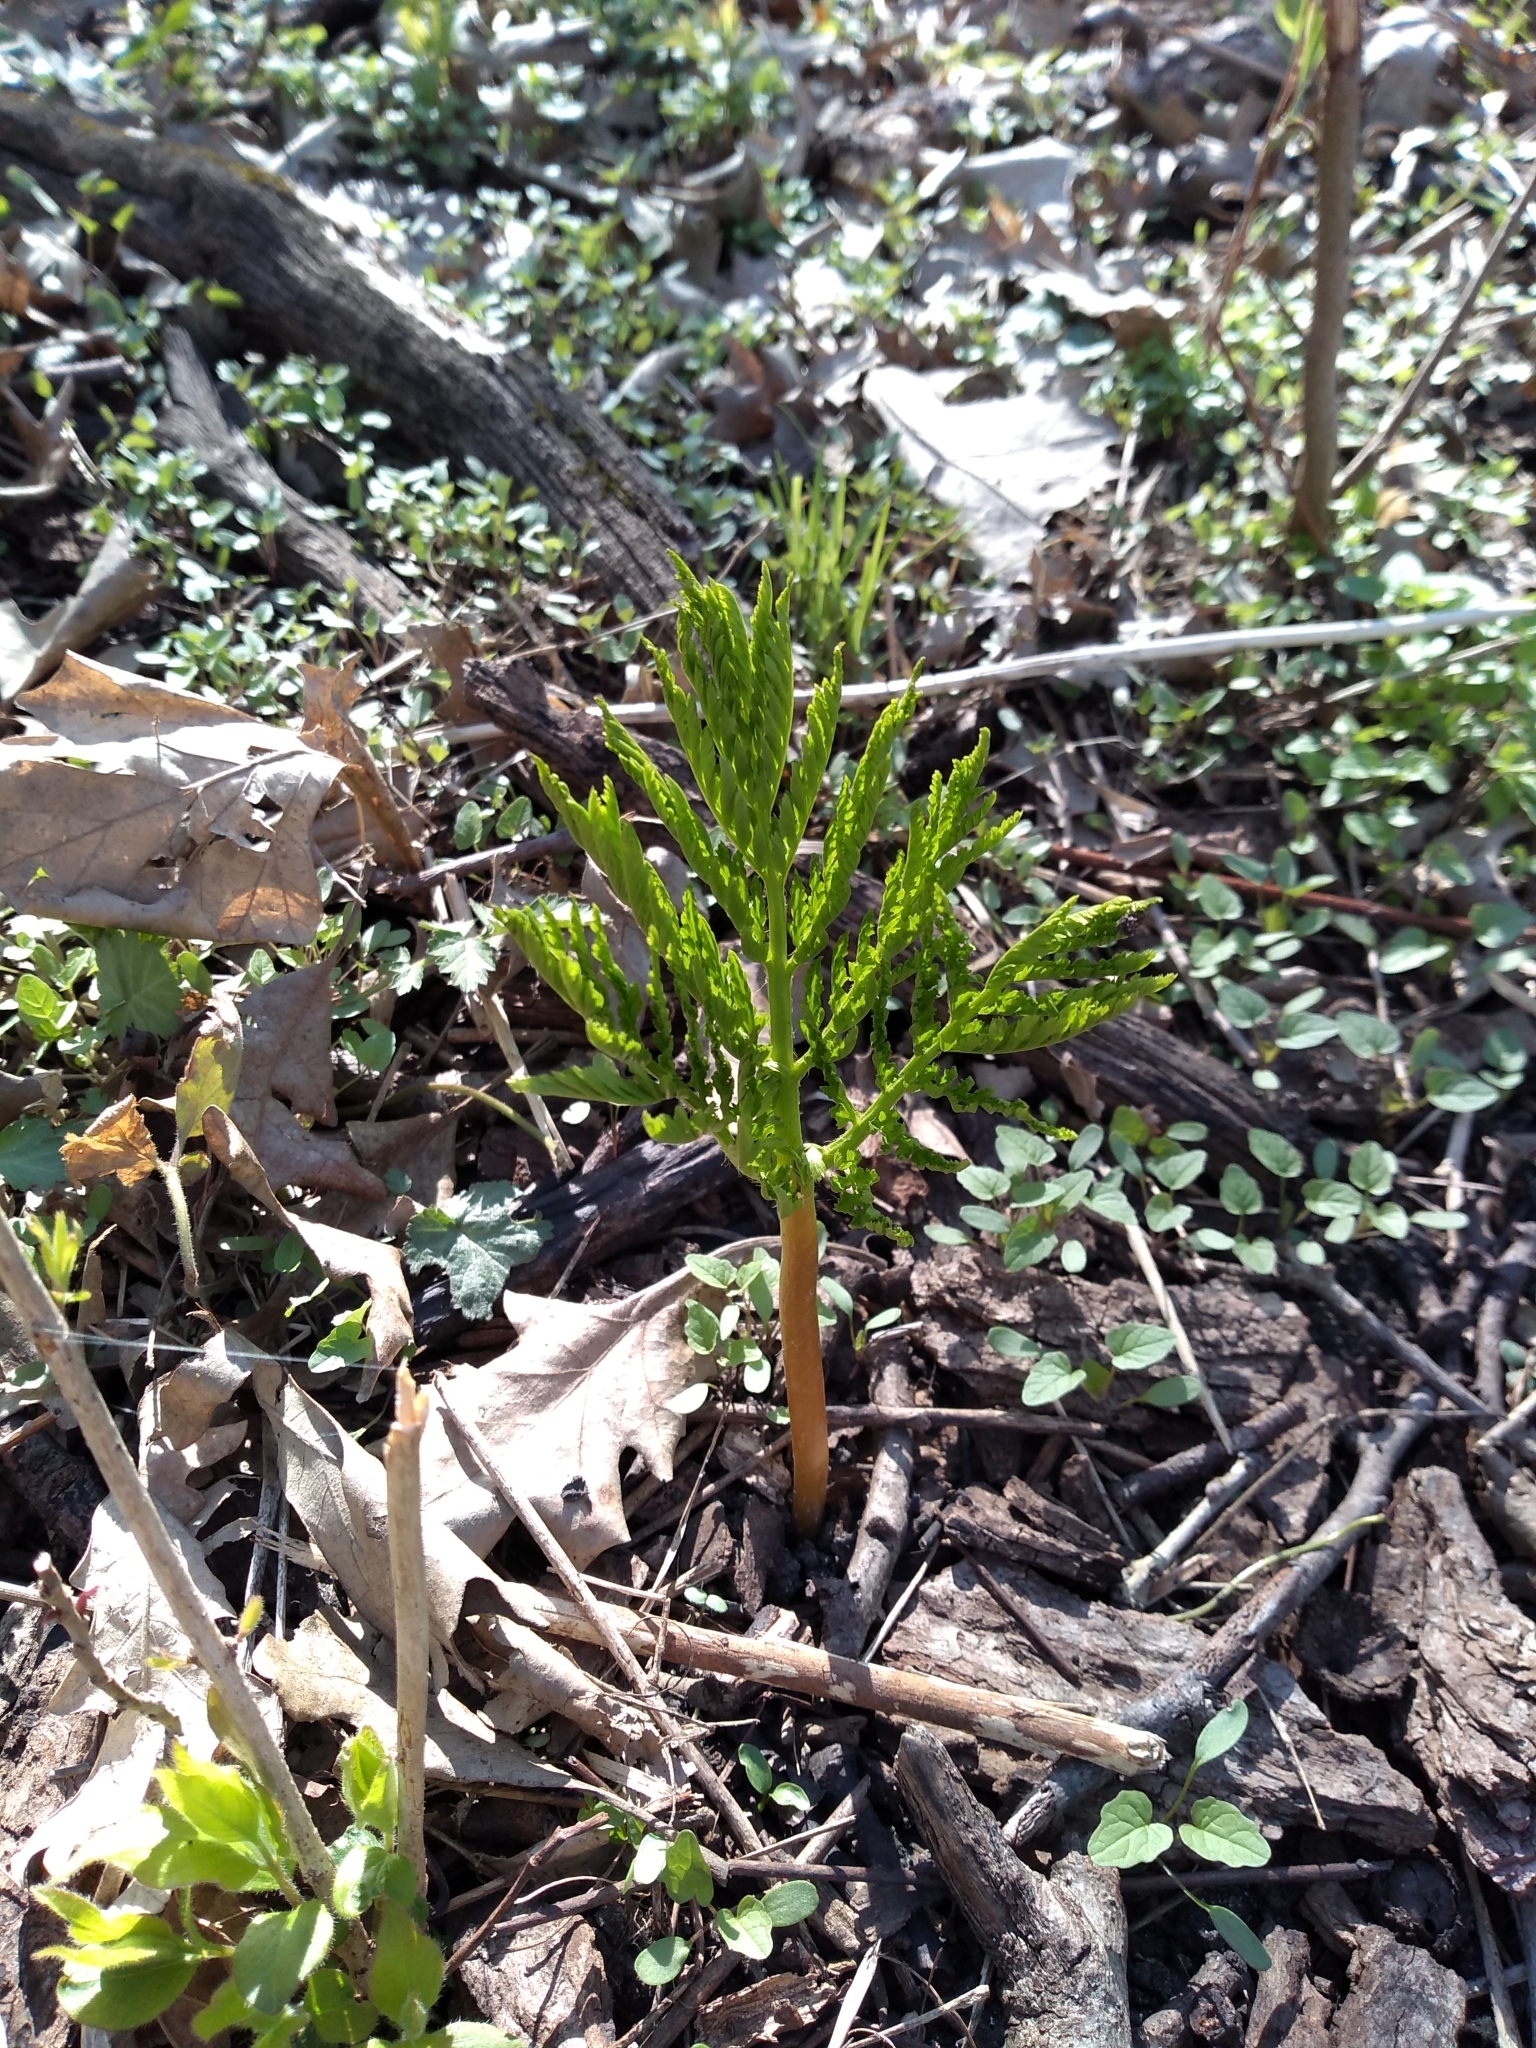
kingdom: Plantae
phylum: Tracheophyta
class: Polypodiopsida
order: Ophioglossales
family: Ophioglossaceae
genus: Botrypus
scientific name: Botrypus virginianus
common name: Common grapefern
